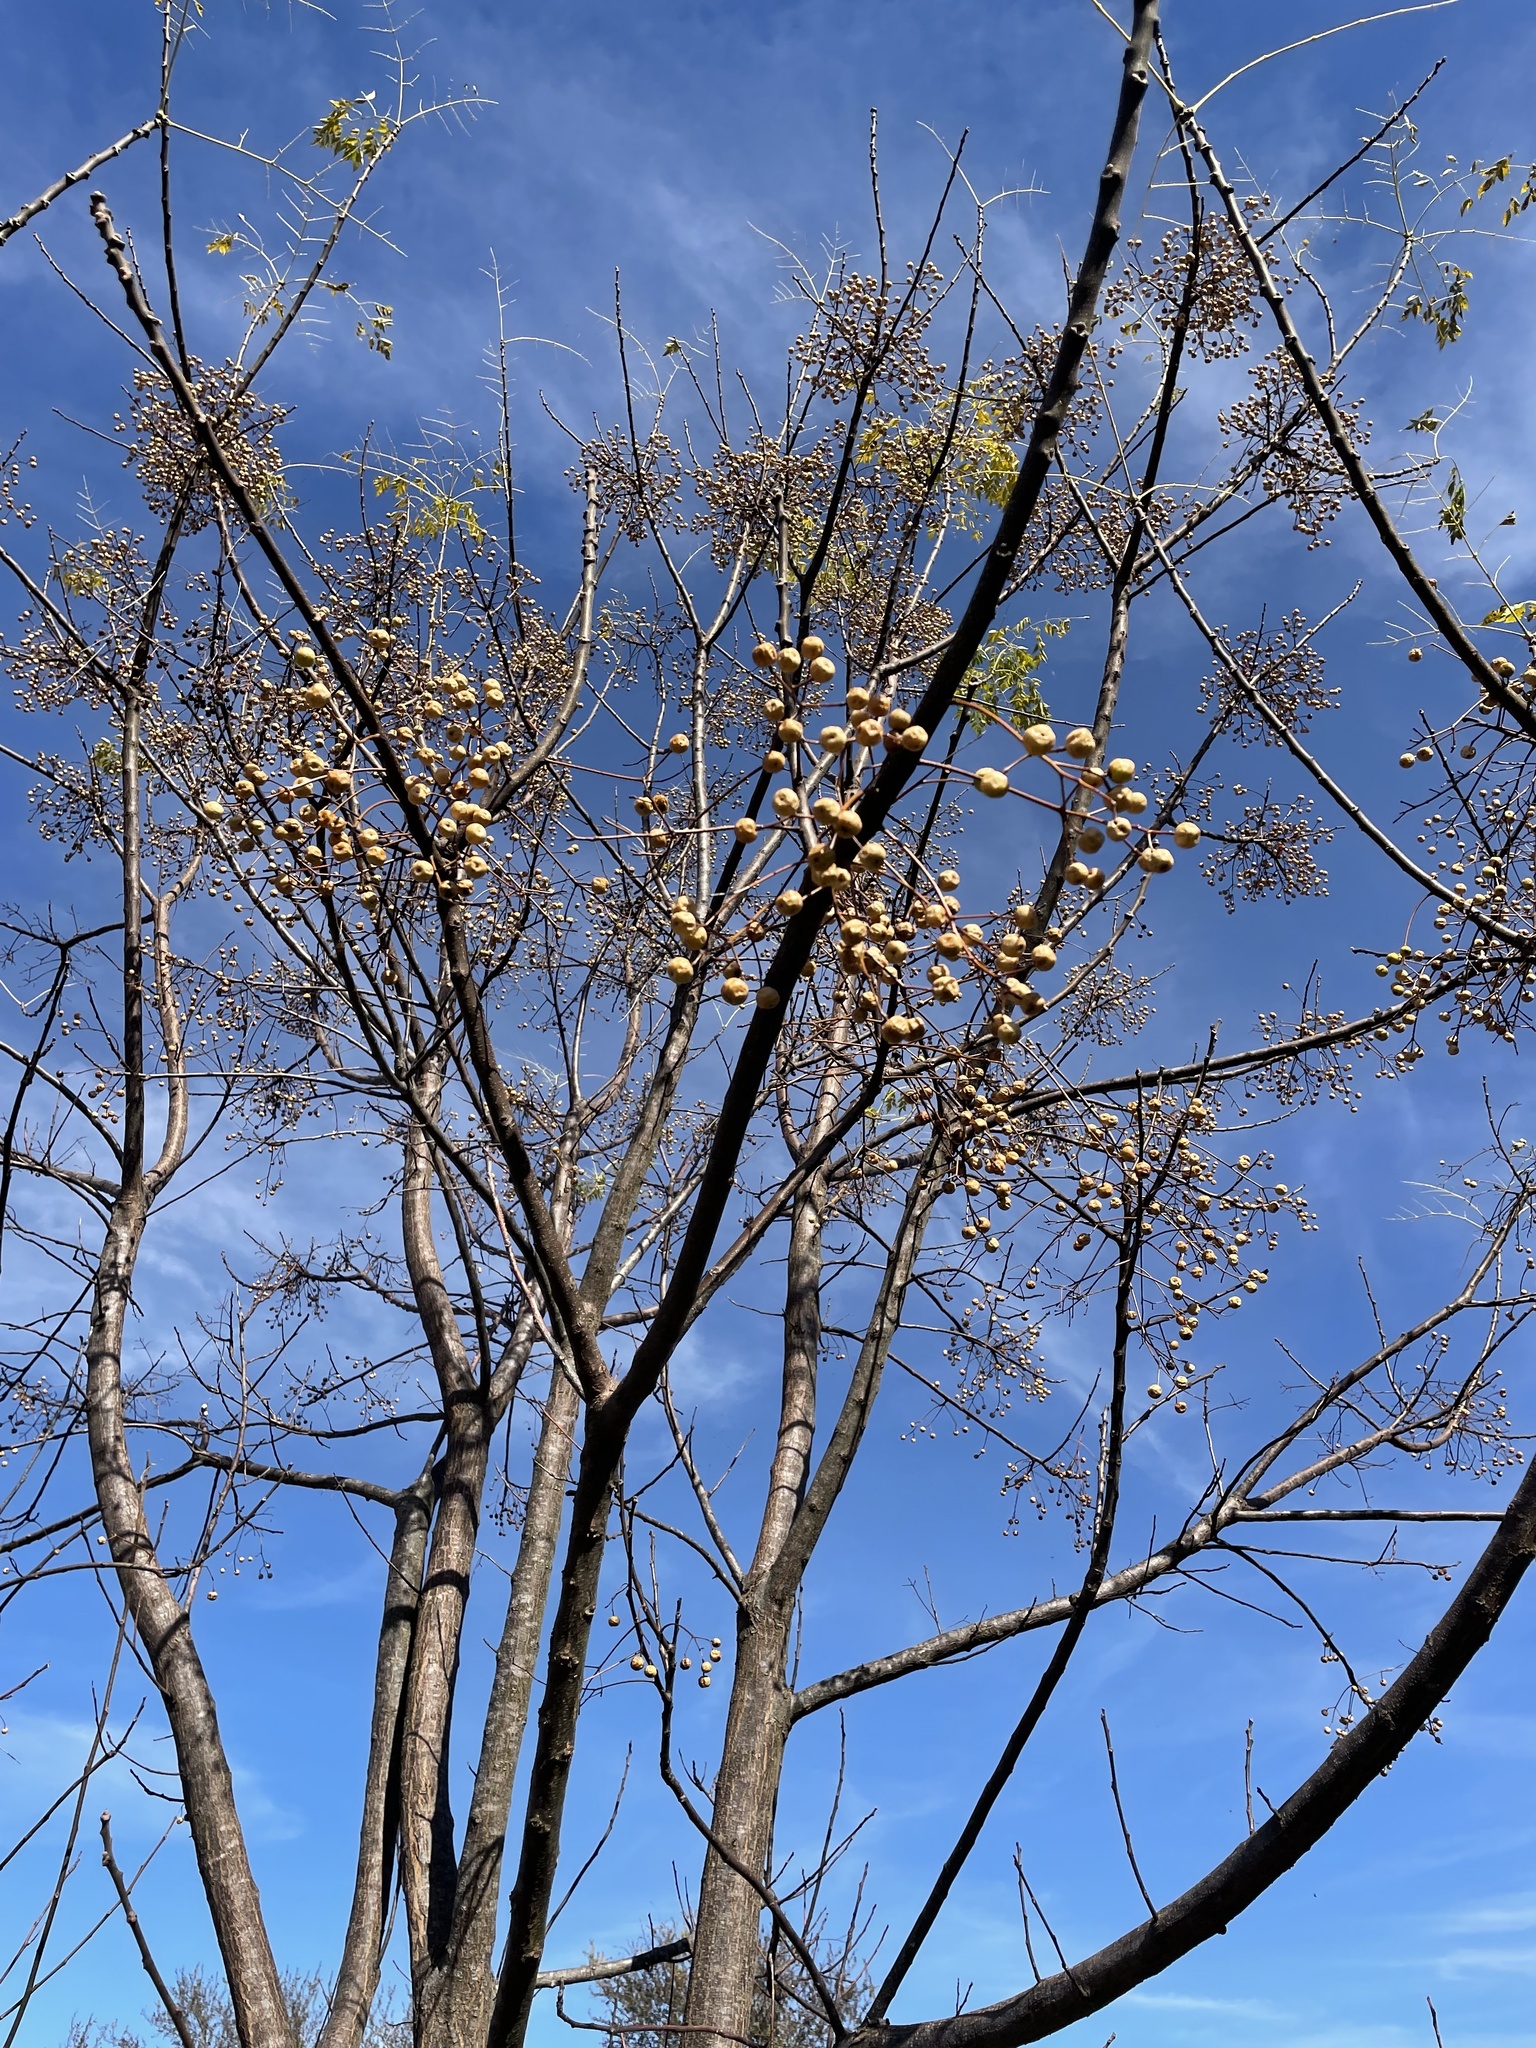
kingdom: Plantae
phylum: Tracheophyta
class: Magnoliopsida
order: Sapindales
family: Meliaceae
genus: Melia
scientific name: Melia azedarach
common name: Chinaberrytree
